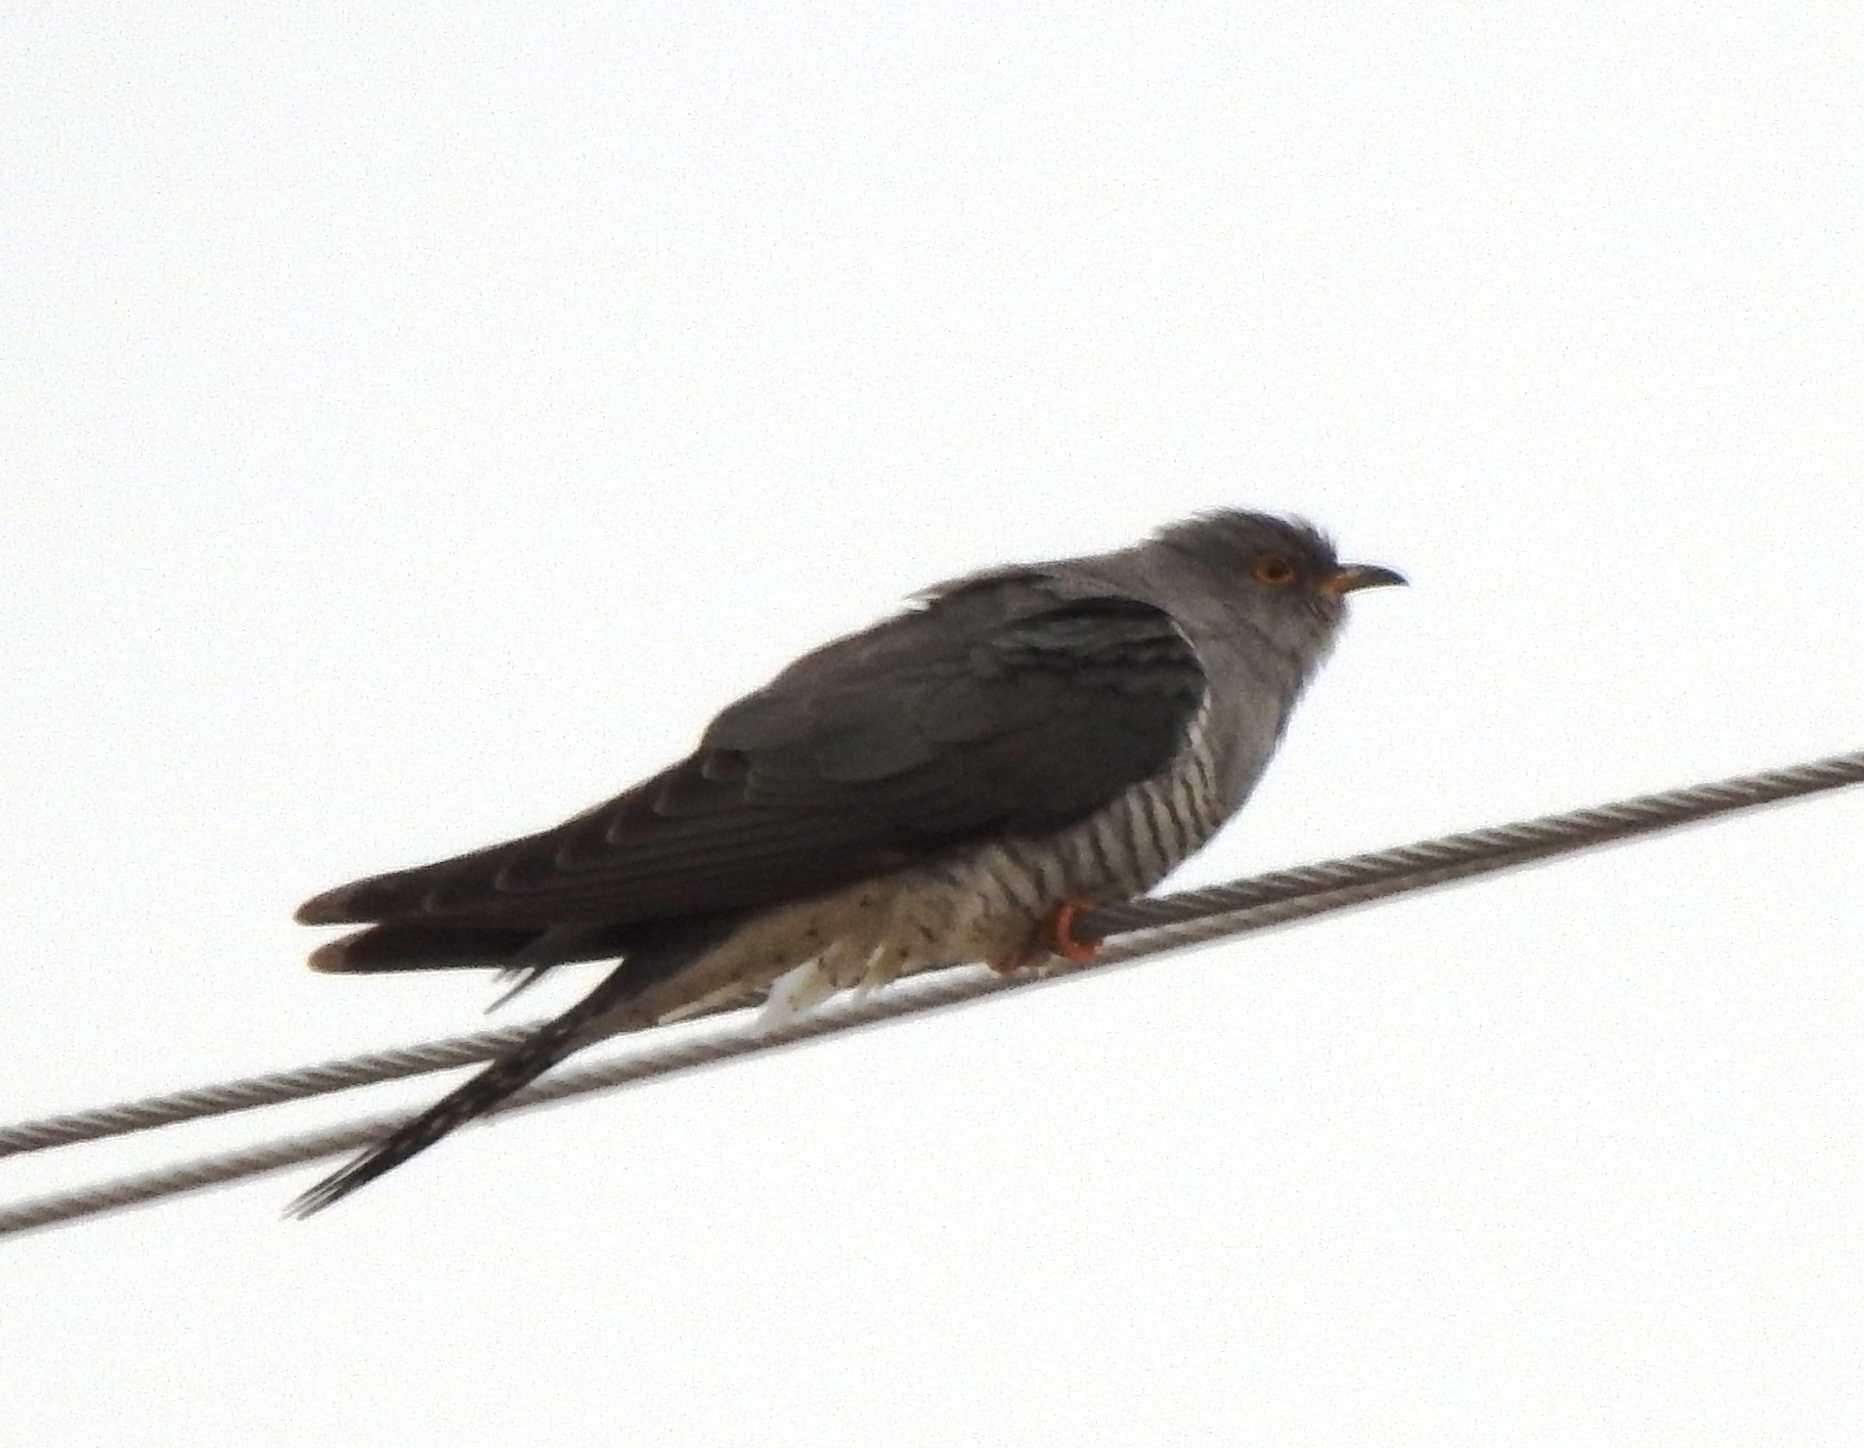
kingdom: Animalia
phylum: Chordata
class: Aves
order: Cuculiformes
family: Cuculidae
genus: Cuculus
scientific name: Cuculus canorus
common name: Common cuckoo
